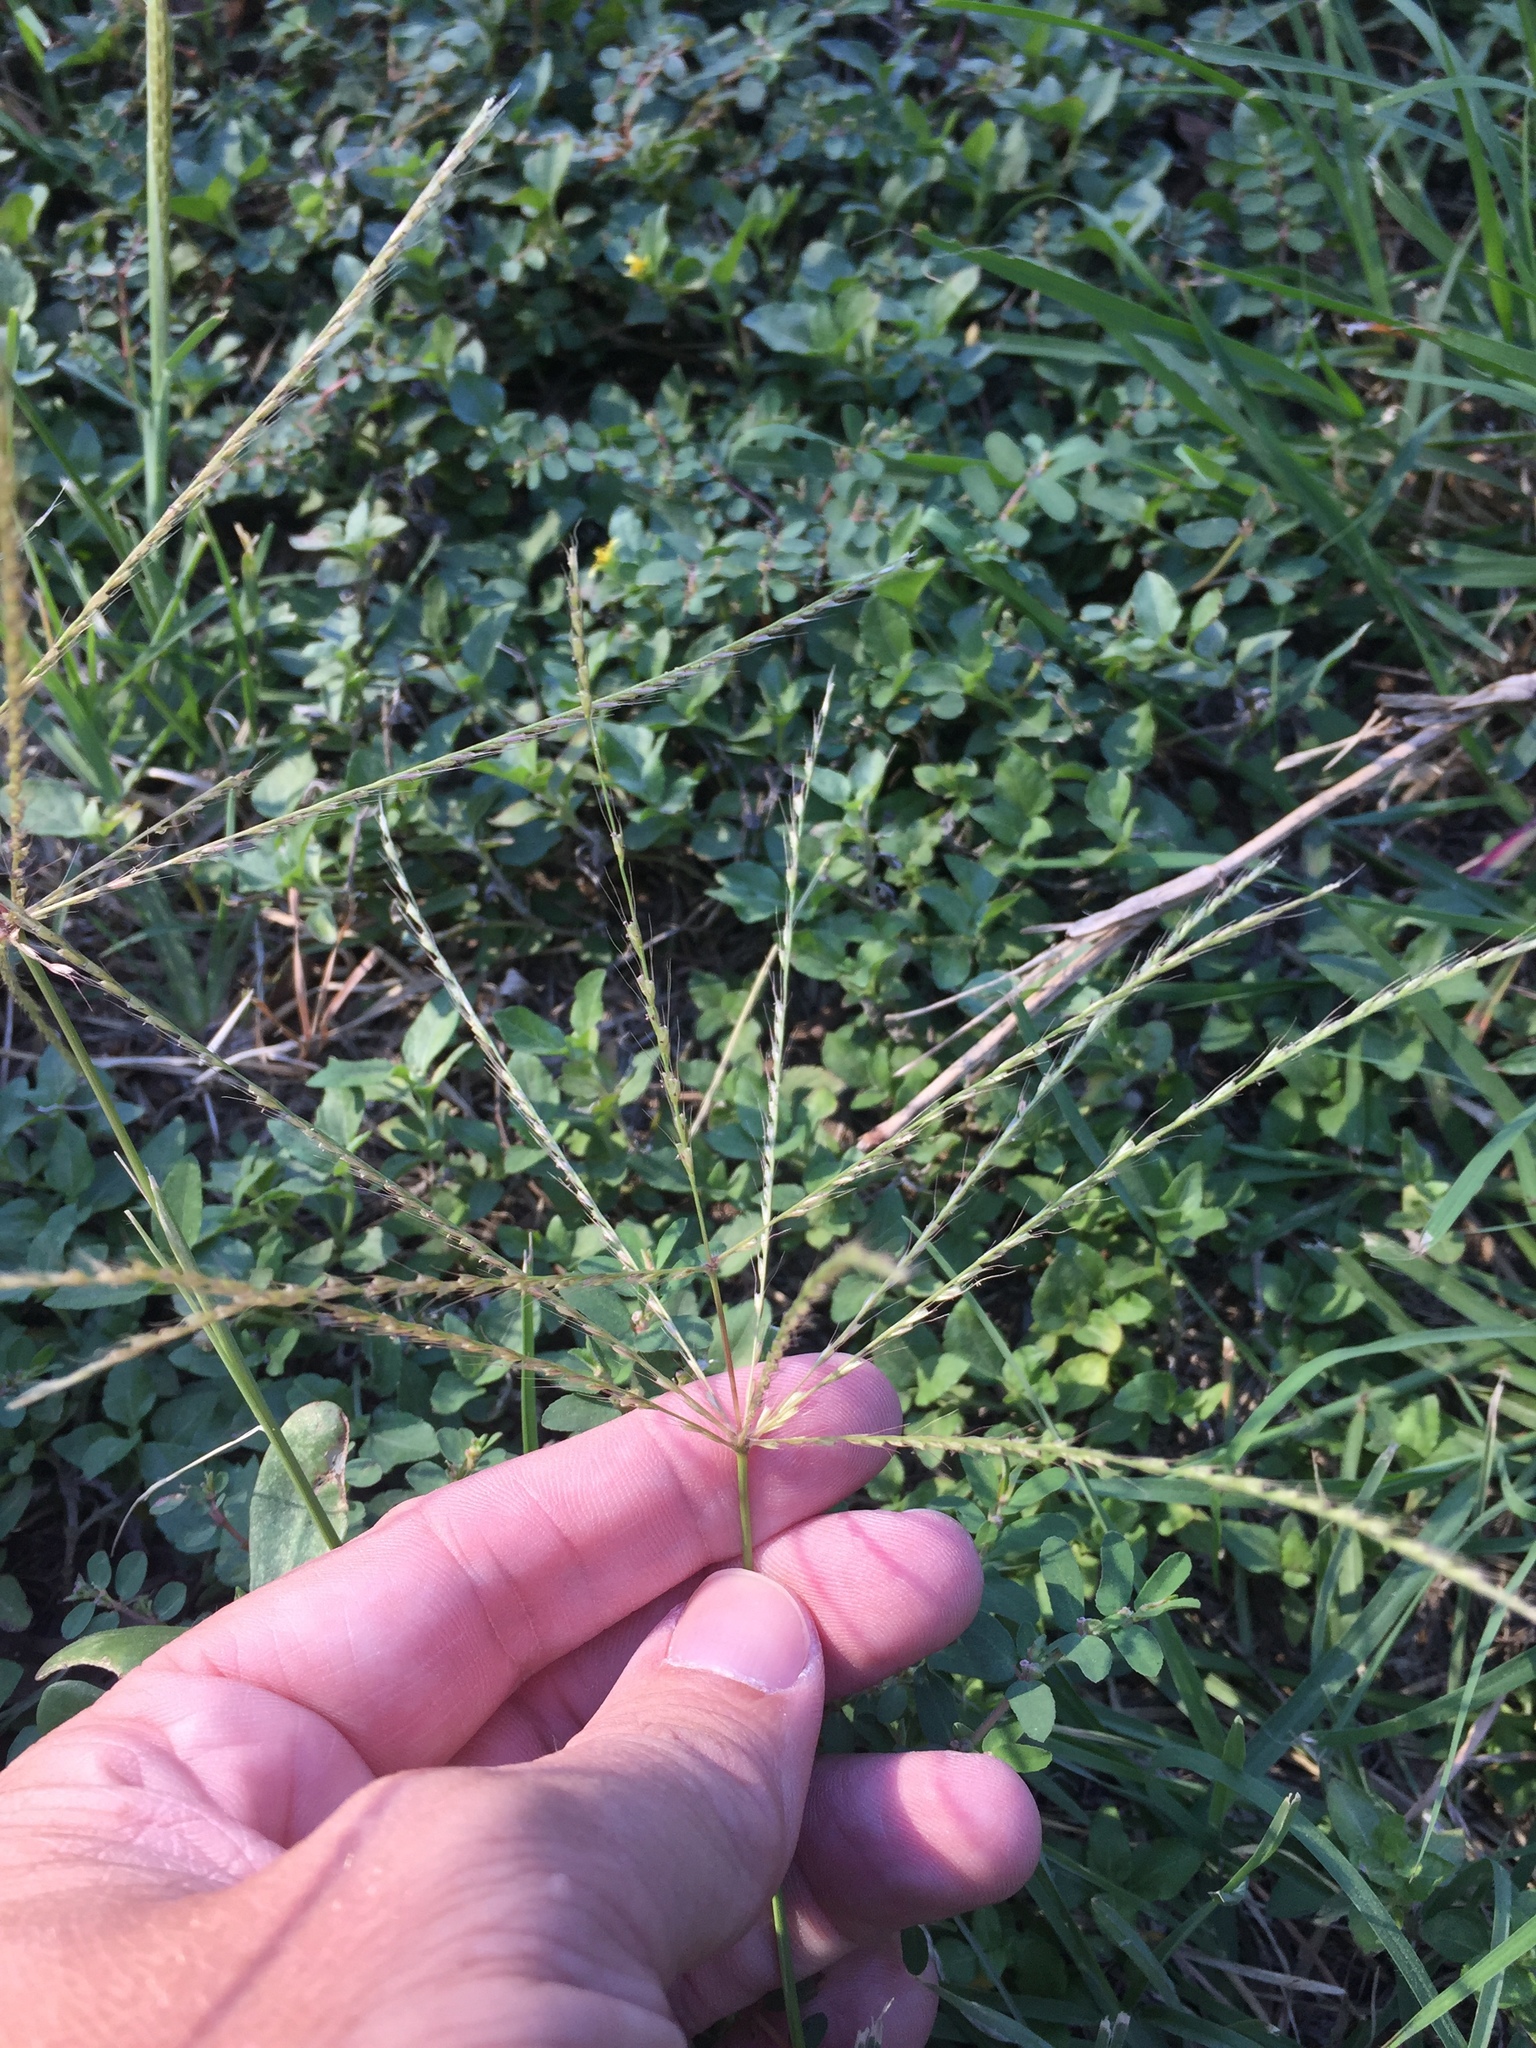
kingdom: Plantae
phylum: Tracheophyta
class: Liliopsida
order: Poales
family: Poaceae
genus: Chloris
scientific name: Chloris verticillata
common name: Tumble windmill grass
